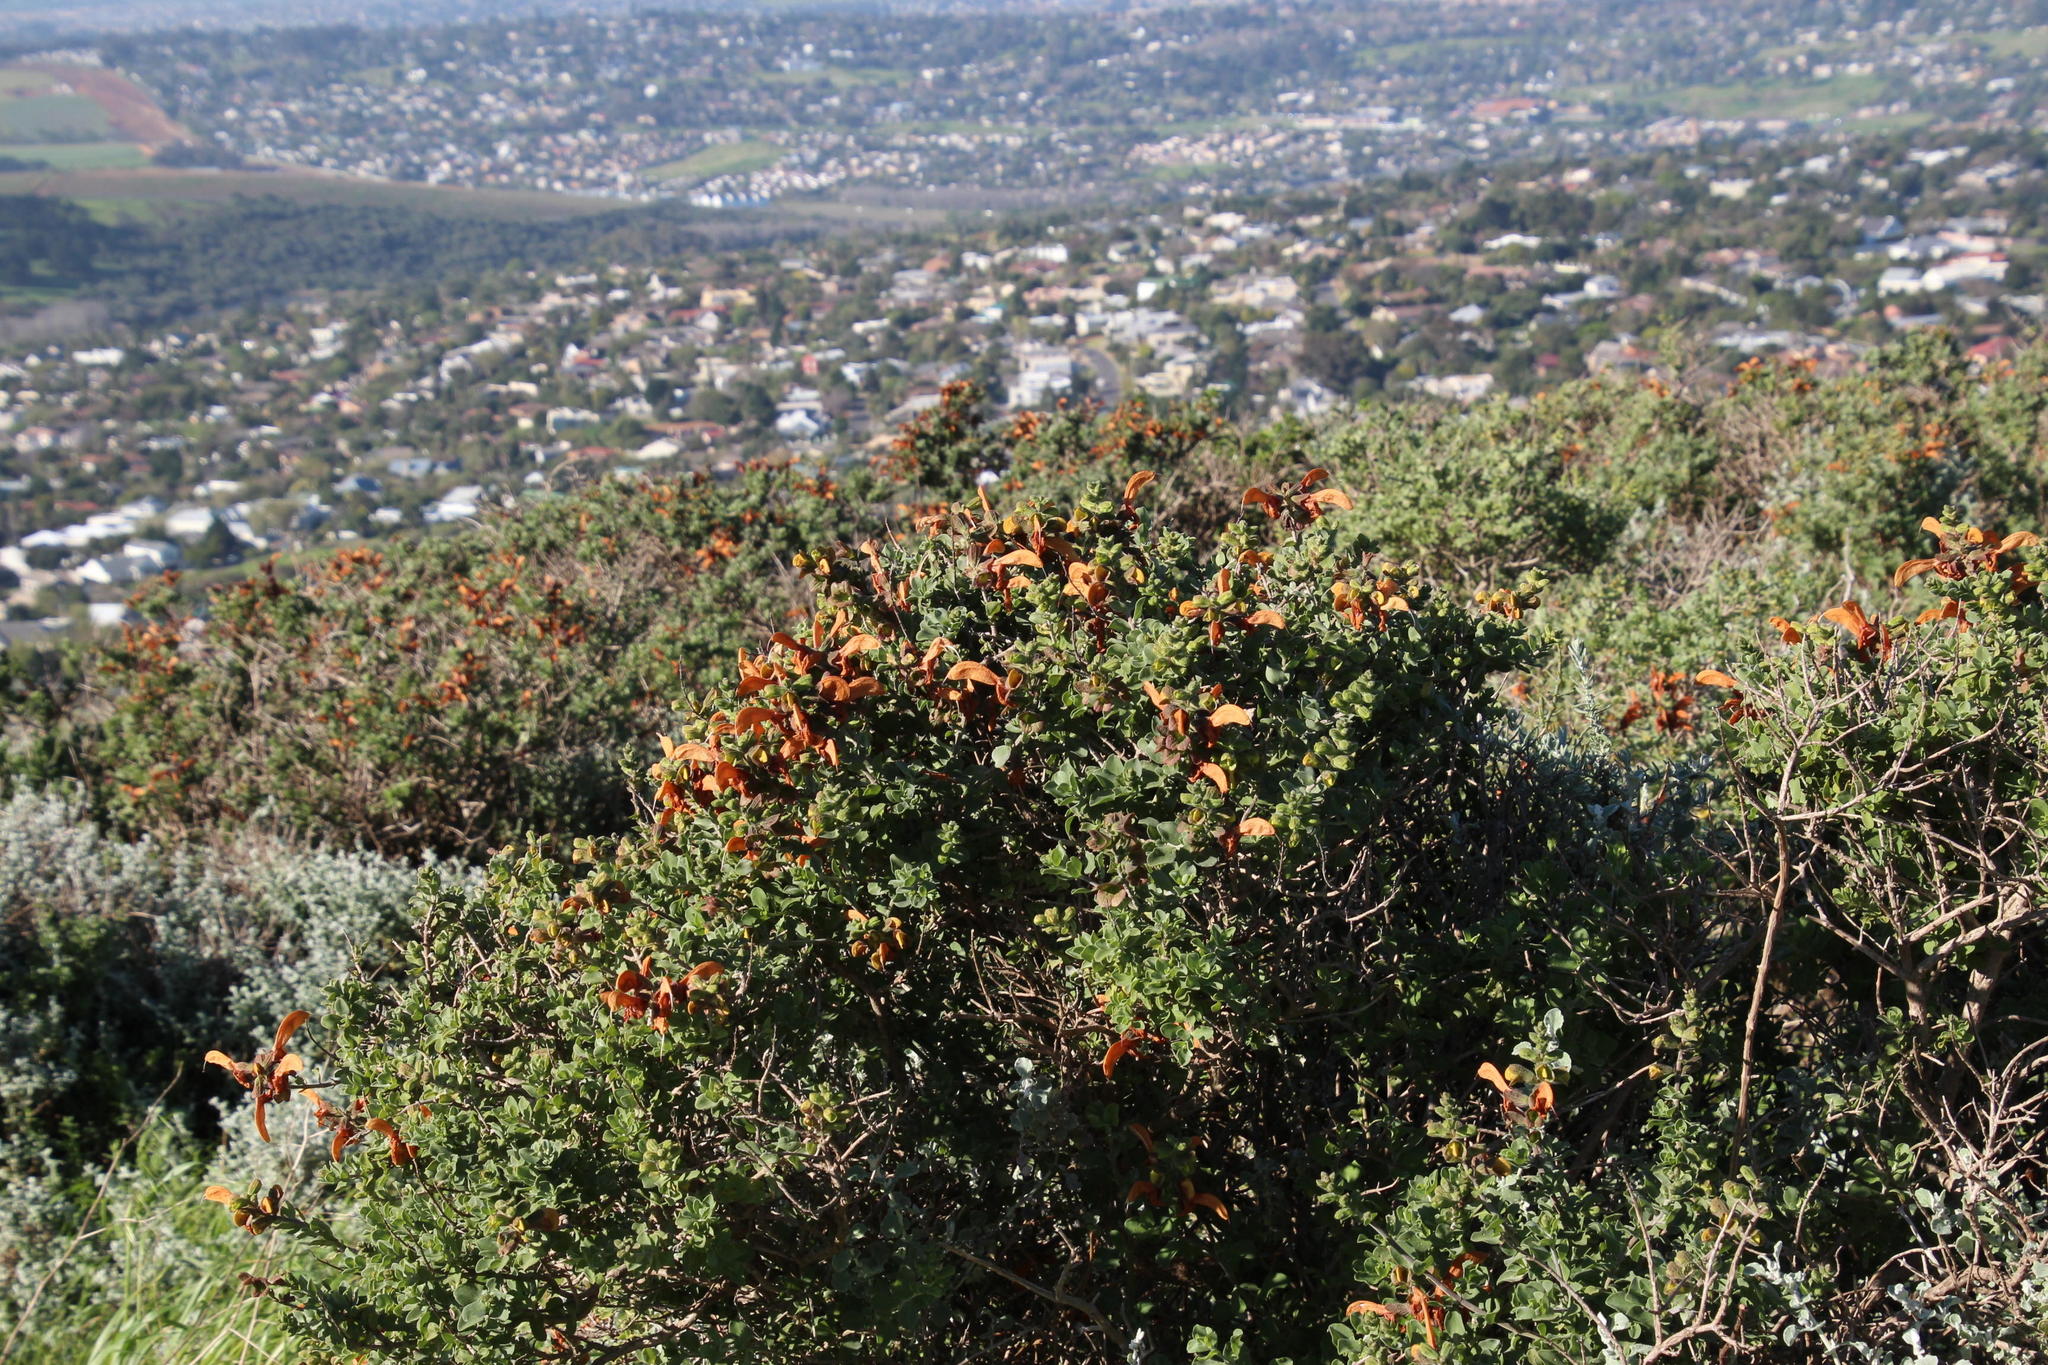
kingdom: Plantae
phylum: Tracheophyta
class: Magnoliopsida
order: Lamiales
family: Lamiaceae
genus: Salvia
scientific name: Salvia aurea
